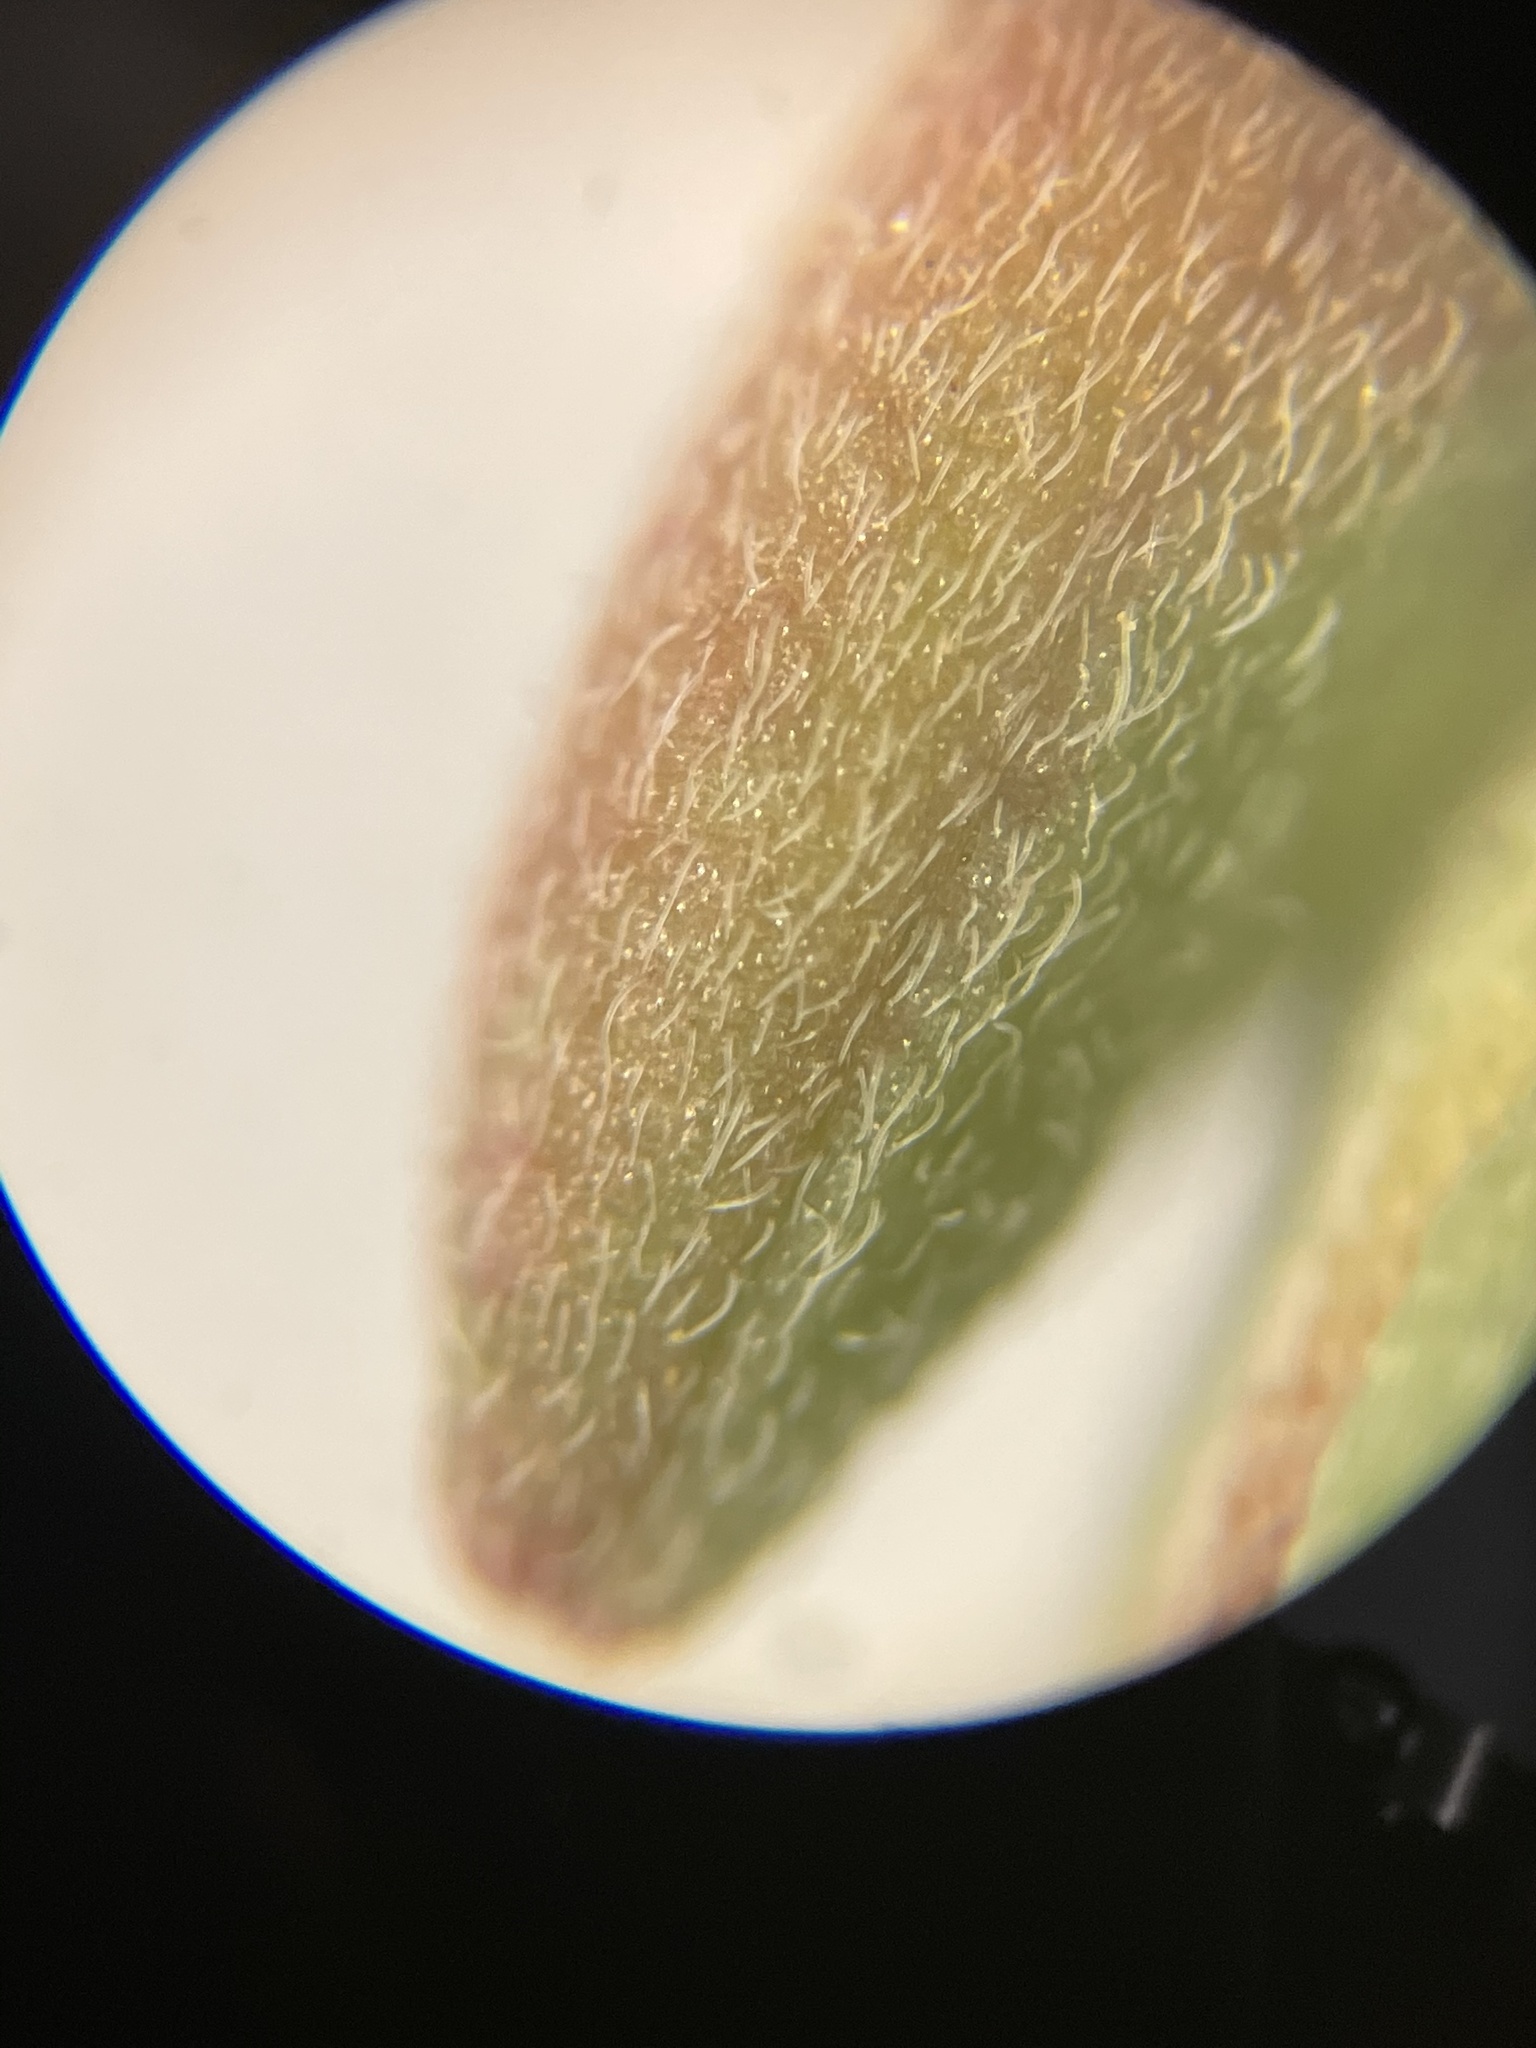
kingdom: Plantae
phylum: Tracheophyta
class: Magnoliopsida
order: Myrtales
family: Onagraceae
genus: Oenothera
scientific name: Oenothera suffrutescens
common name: Scarlet beeblossom
